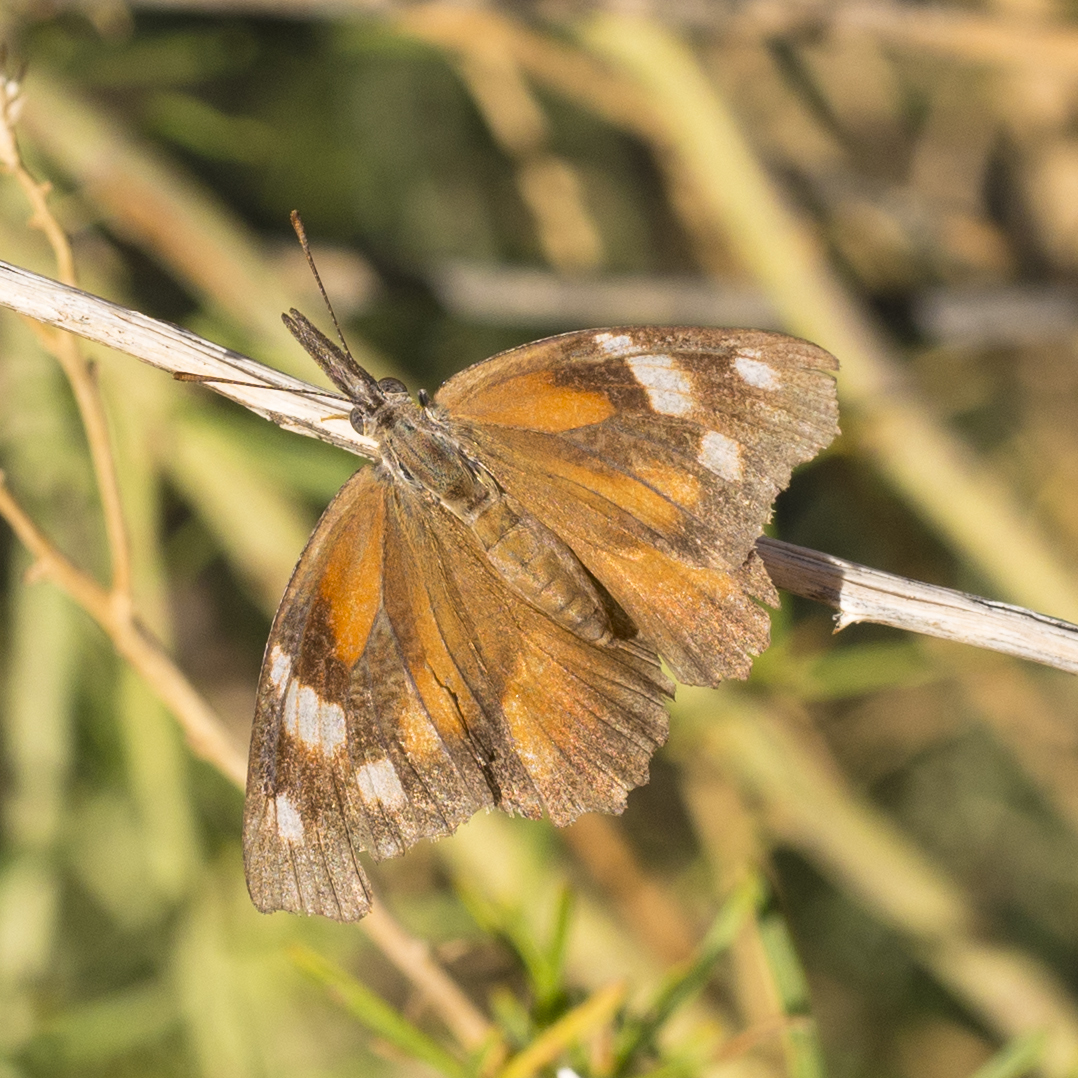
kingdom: Animalia
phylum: Arthropoda
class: Insecta
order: Lepidoptera
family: Nymphalidae
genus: Libytheana
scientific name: Libytheana carinenta
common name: American snout
